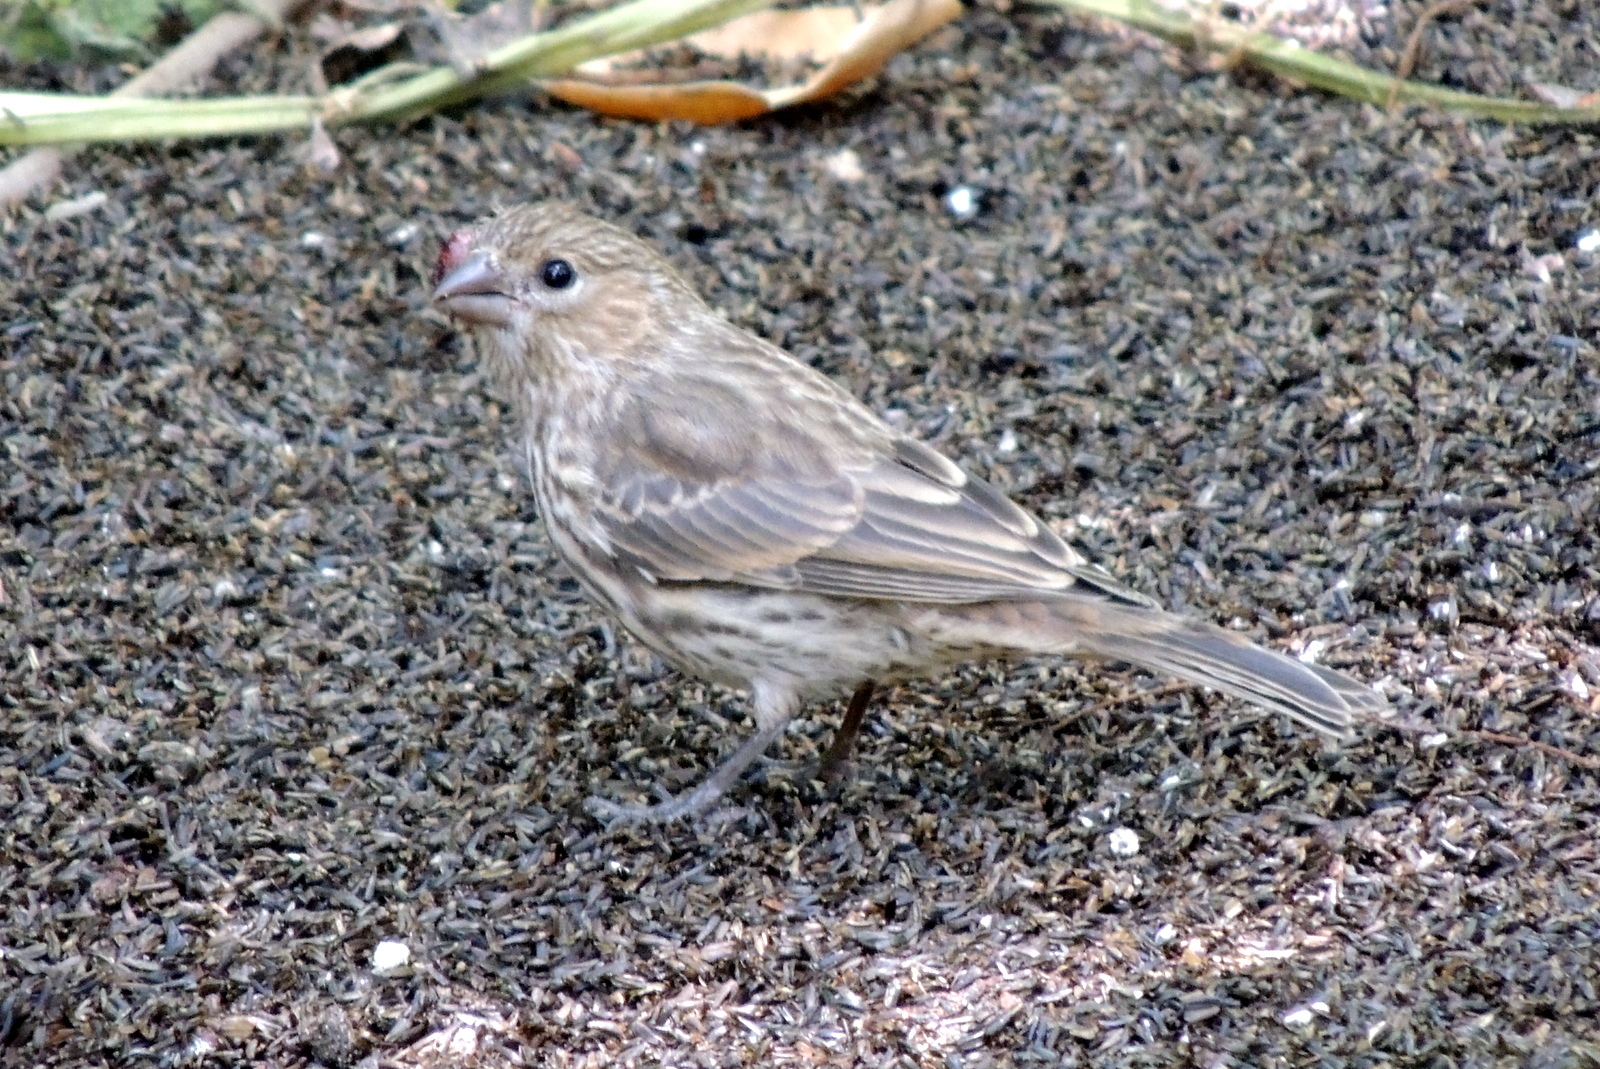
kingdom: Animalia
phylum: Chordata
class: Aves
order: Passeriformes
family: Fringillidae
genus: Haemorhous
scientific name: Haemorhous mexicanus
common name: House finch
